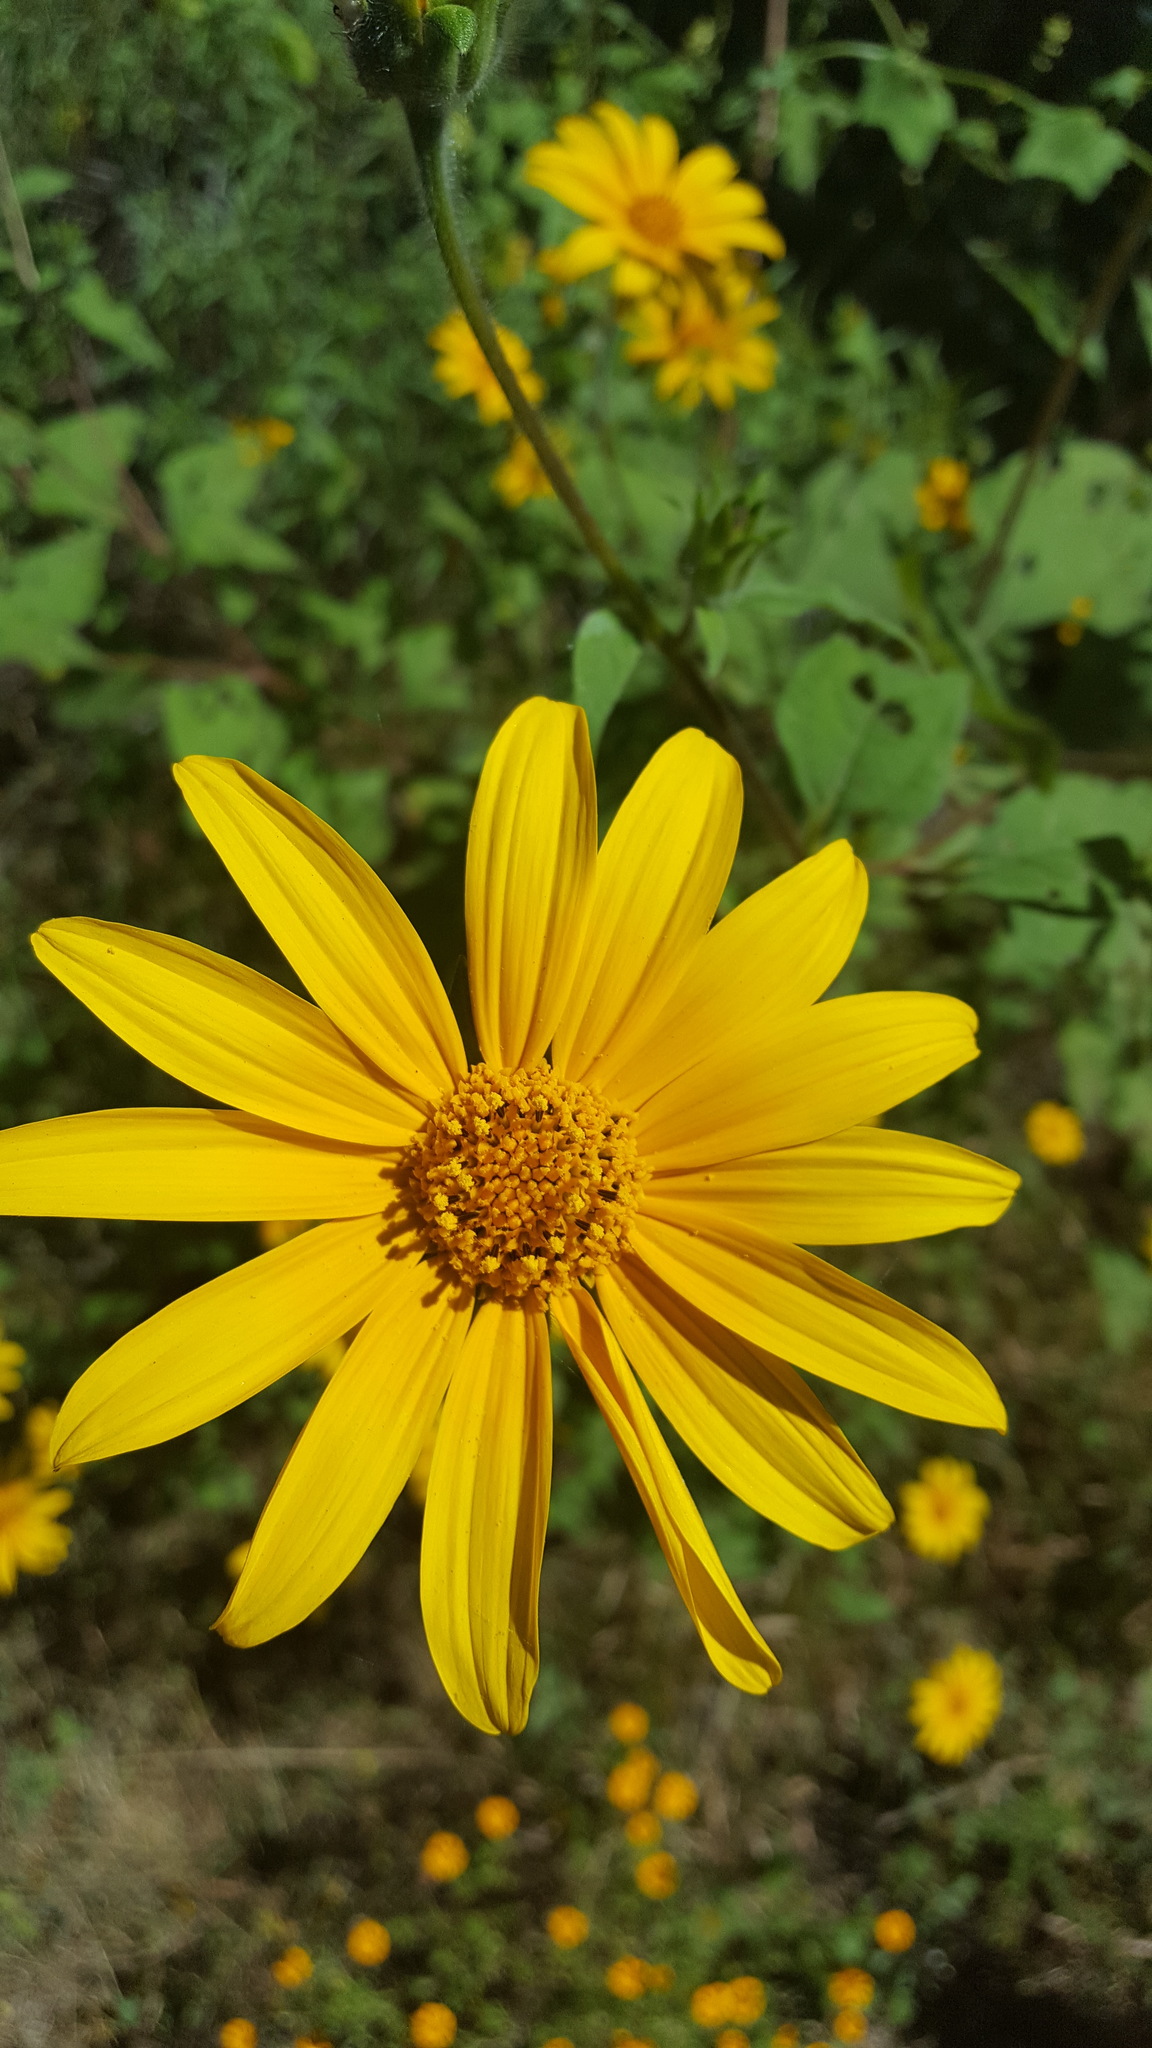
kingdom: Plantae
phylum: Tracheophyta
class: Magnoliopsida
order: Asterales
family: Asteraceae
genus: Tithonia
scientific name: Tithonia tubaeformis
